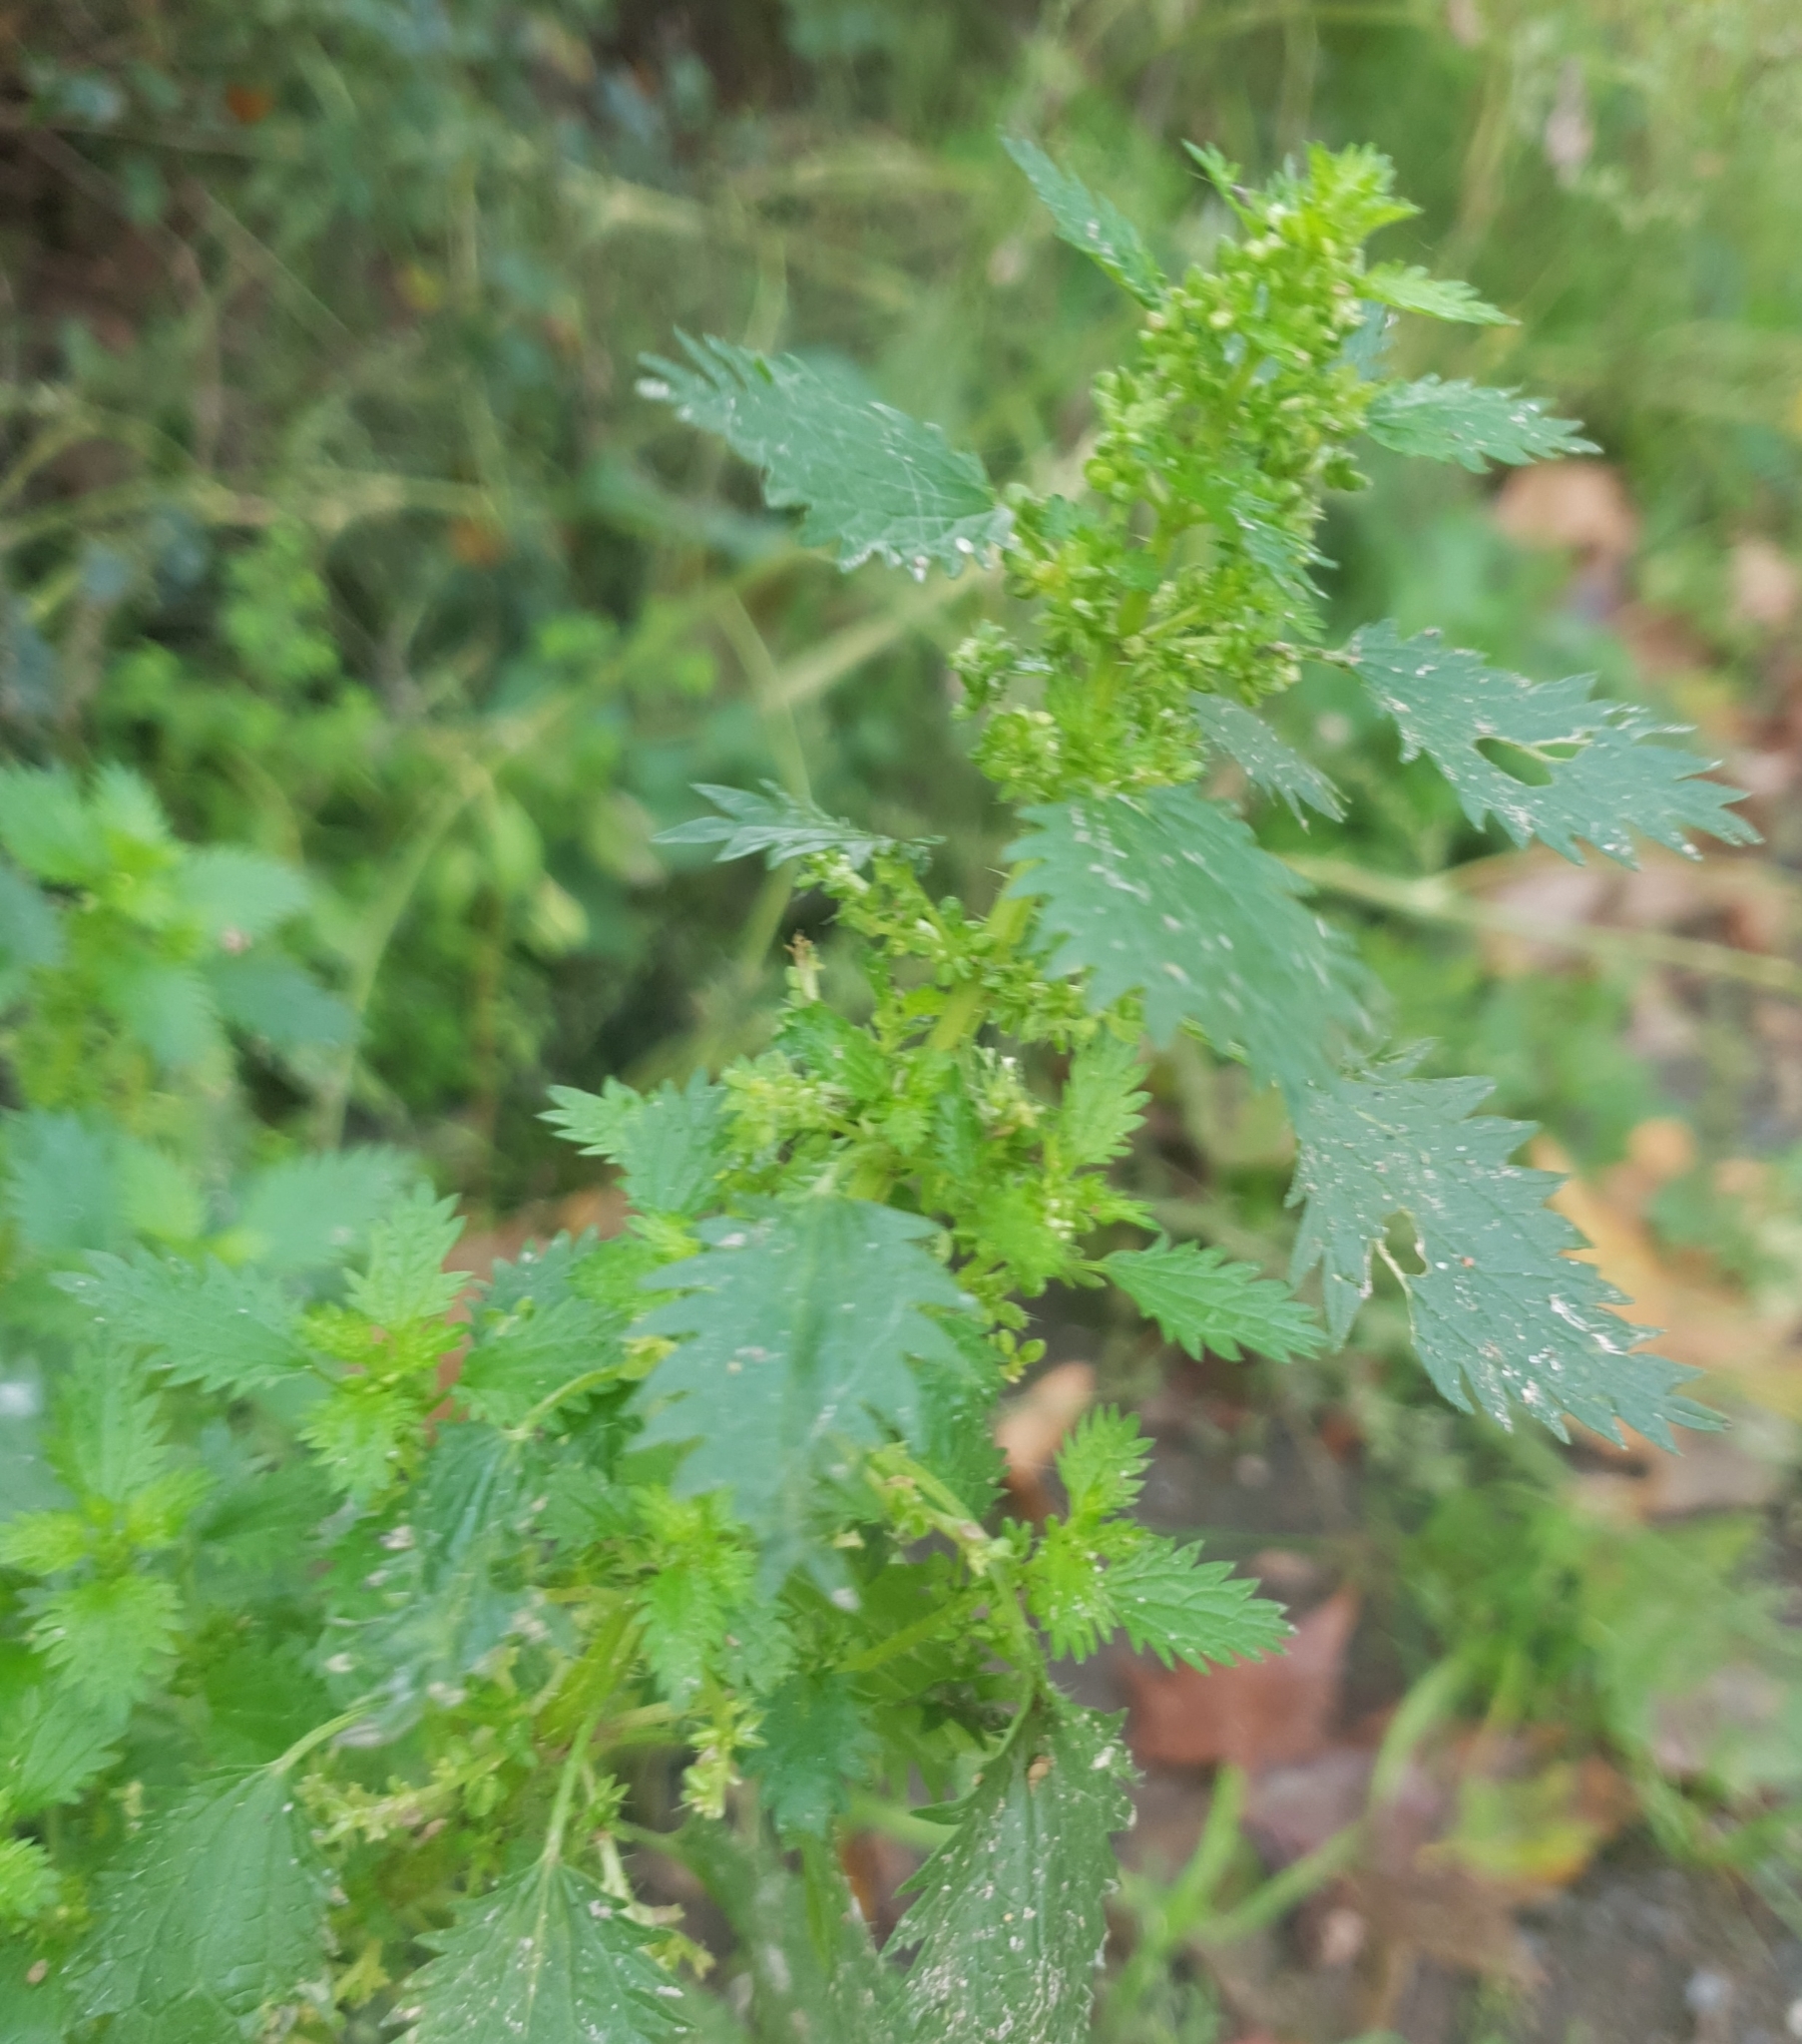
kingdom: Plantae
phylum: Tracheophyta
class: Magnoliopsida
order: Rosales
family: Urticaceae
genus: Urtica
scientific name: Urtica urens
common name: Dwarf nettle
